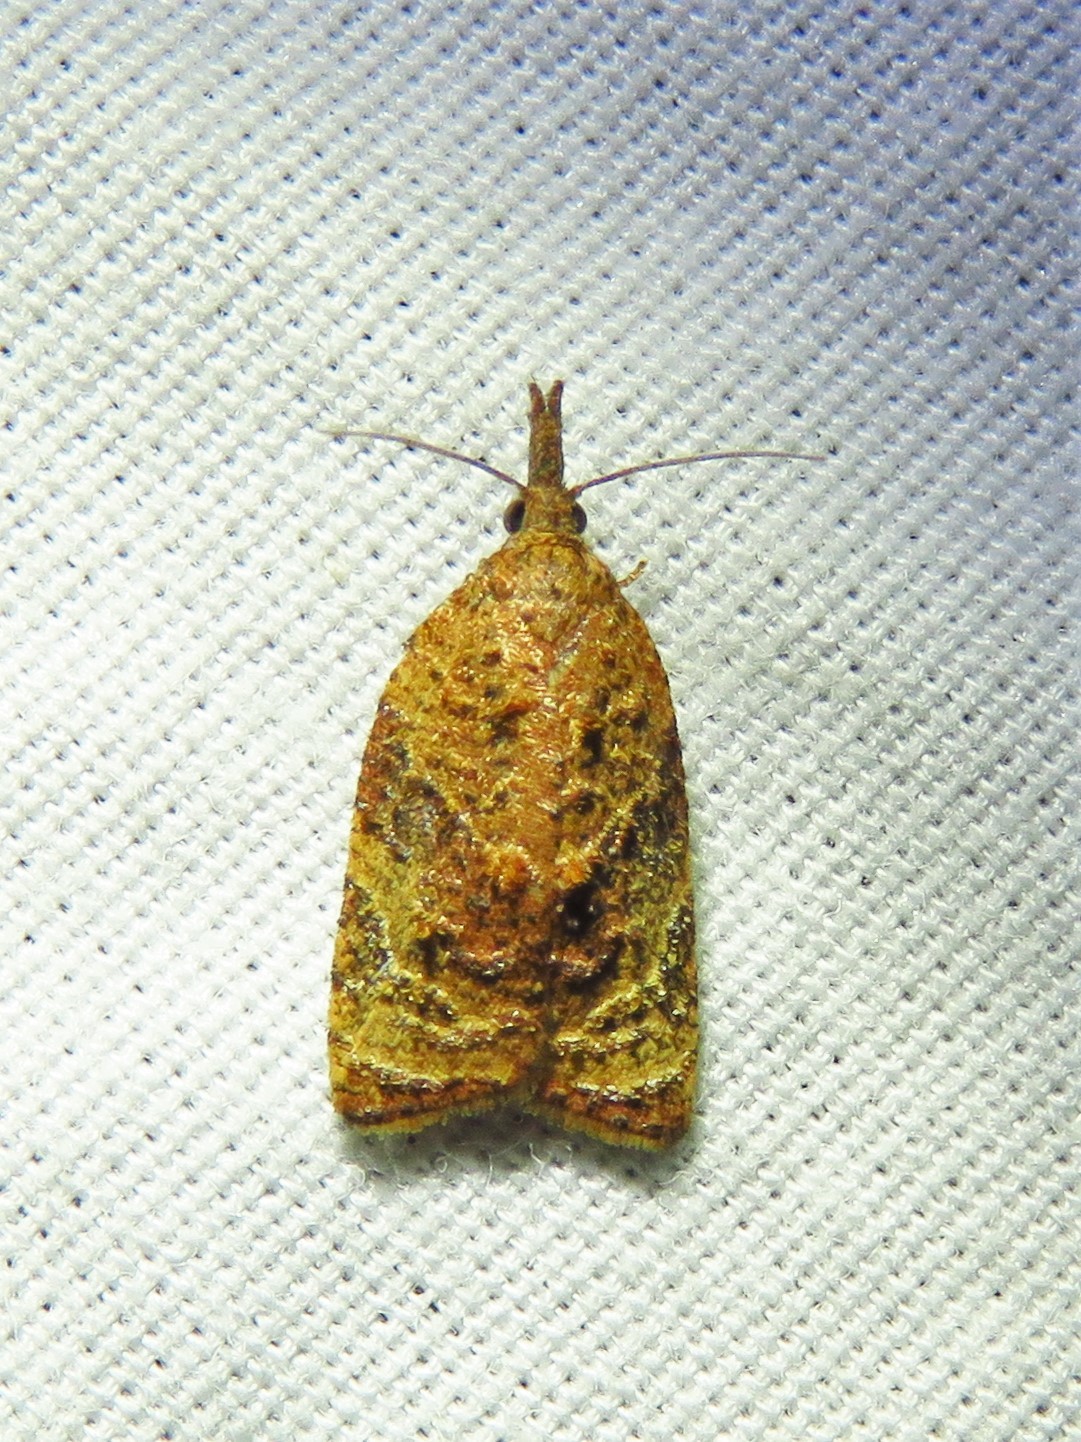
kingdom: Animalia
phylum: Arthropoda
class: Insecta
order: Lepidoptera
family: Tortricidae
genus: Platynota
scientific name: Platynota flavedana
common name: Black-shaded platynota moth
